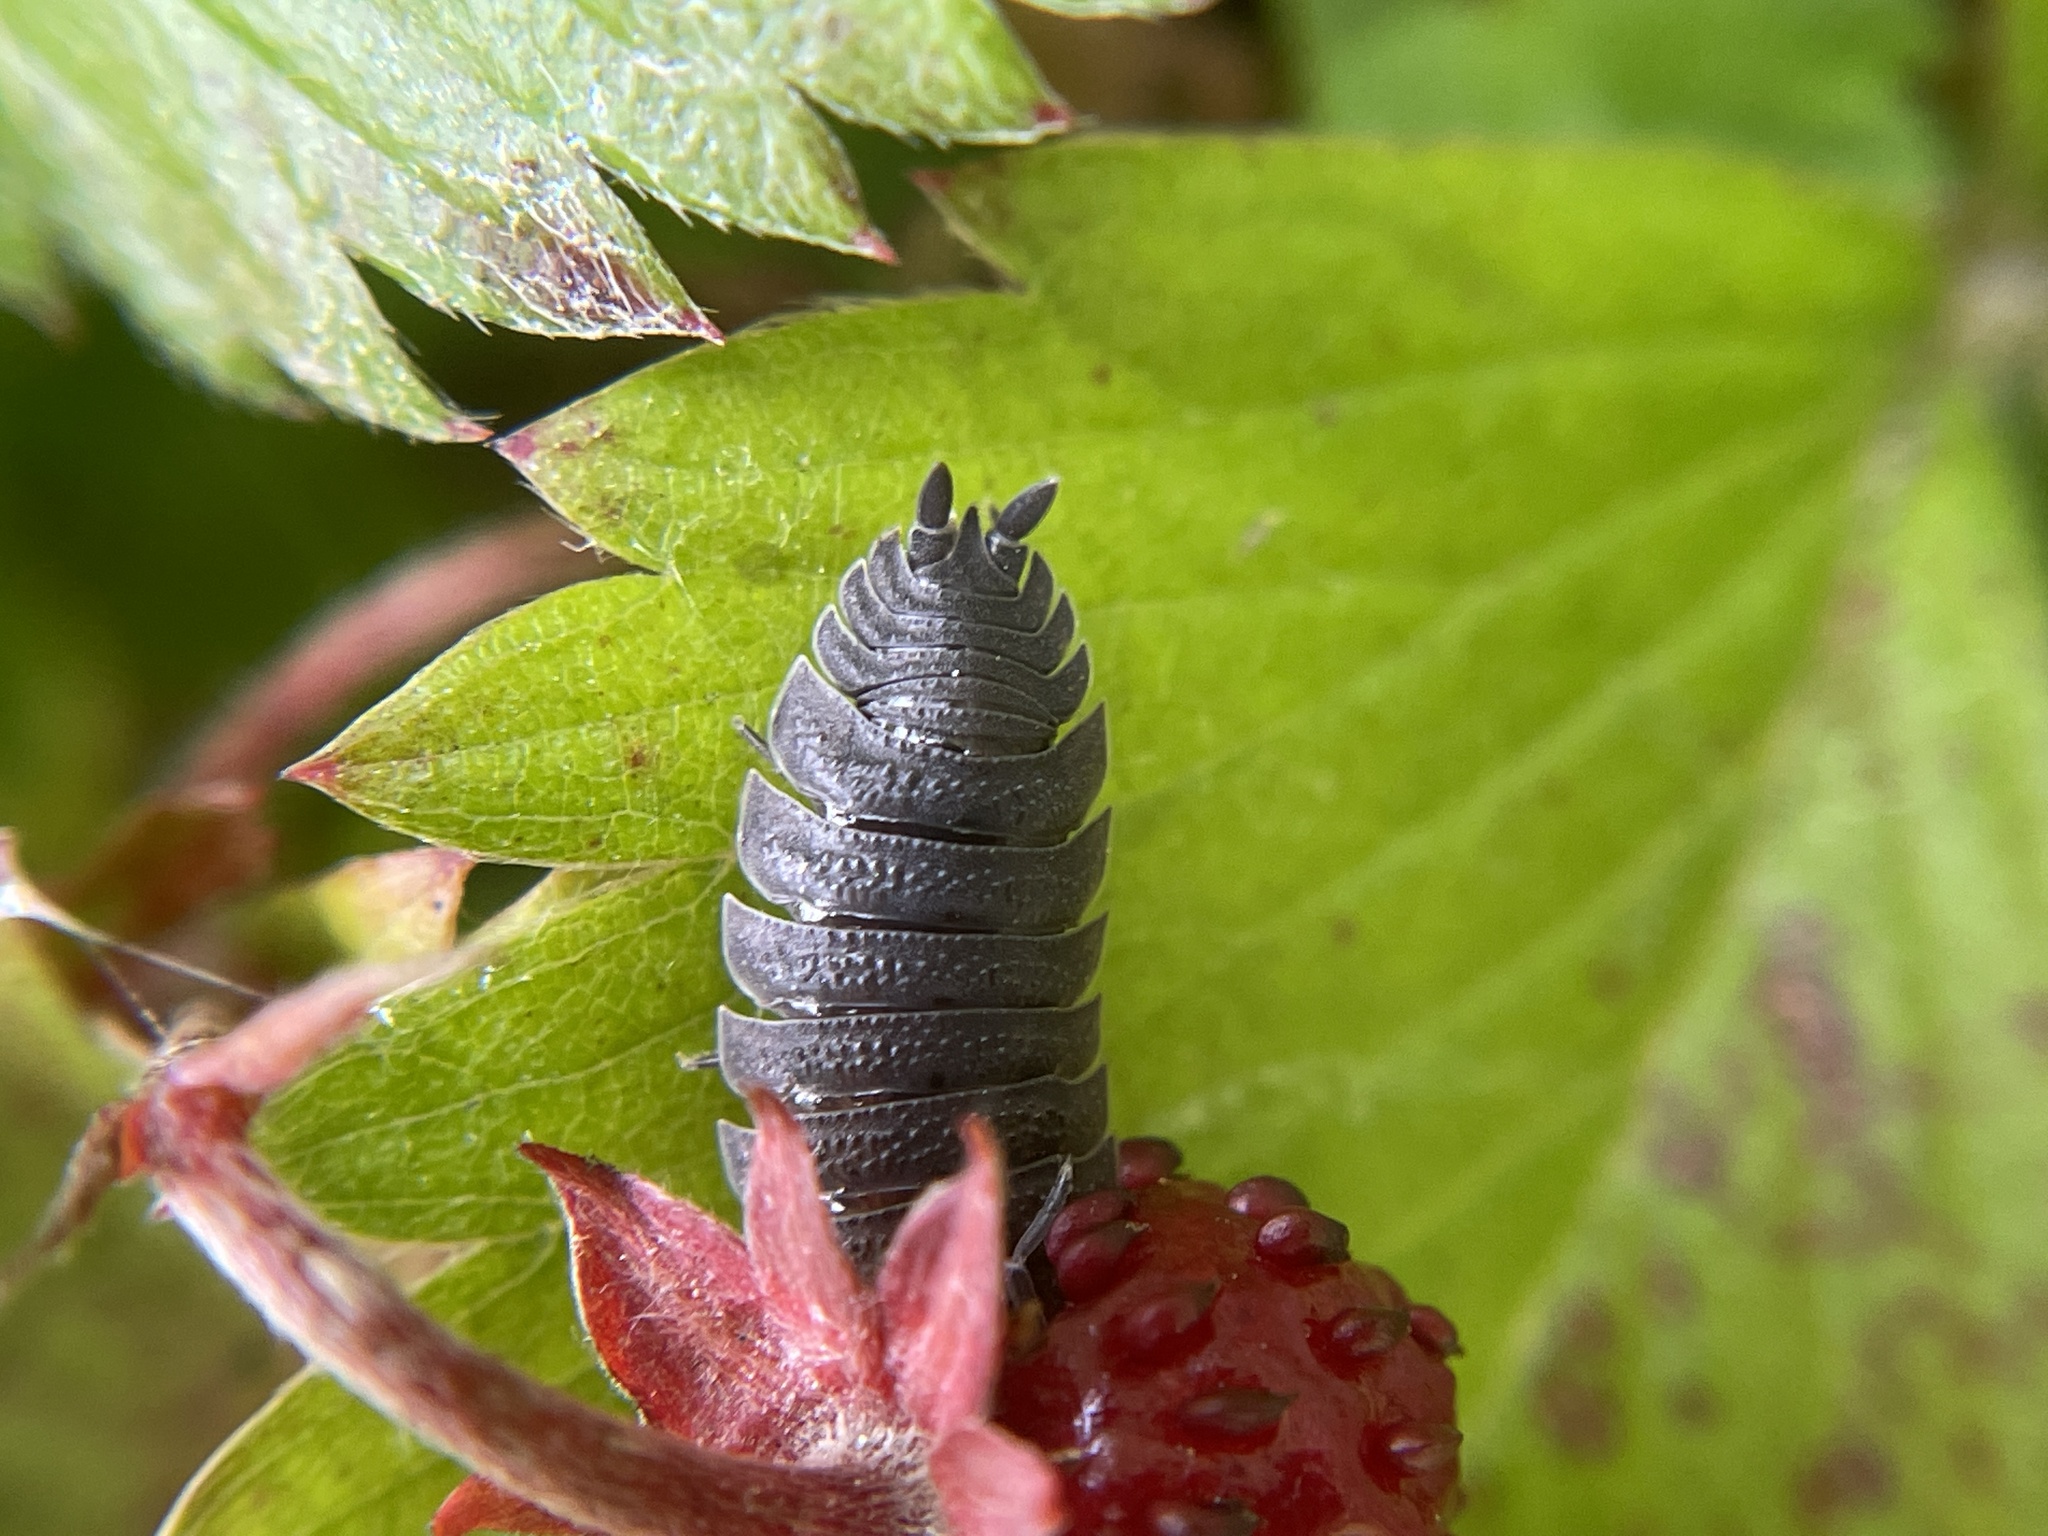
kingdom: Animalia
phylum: Arthropoda
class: Malacostraca
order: Isopoda
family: Porcellionidae
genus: Porcellio
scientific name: Porcellio scaber
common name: Common rough woodlouse
